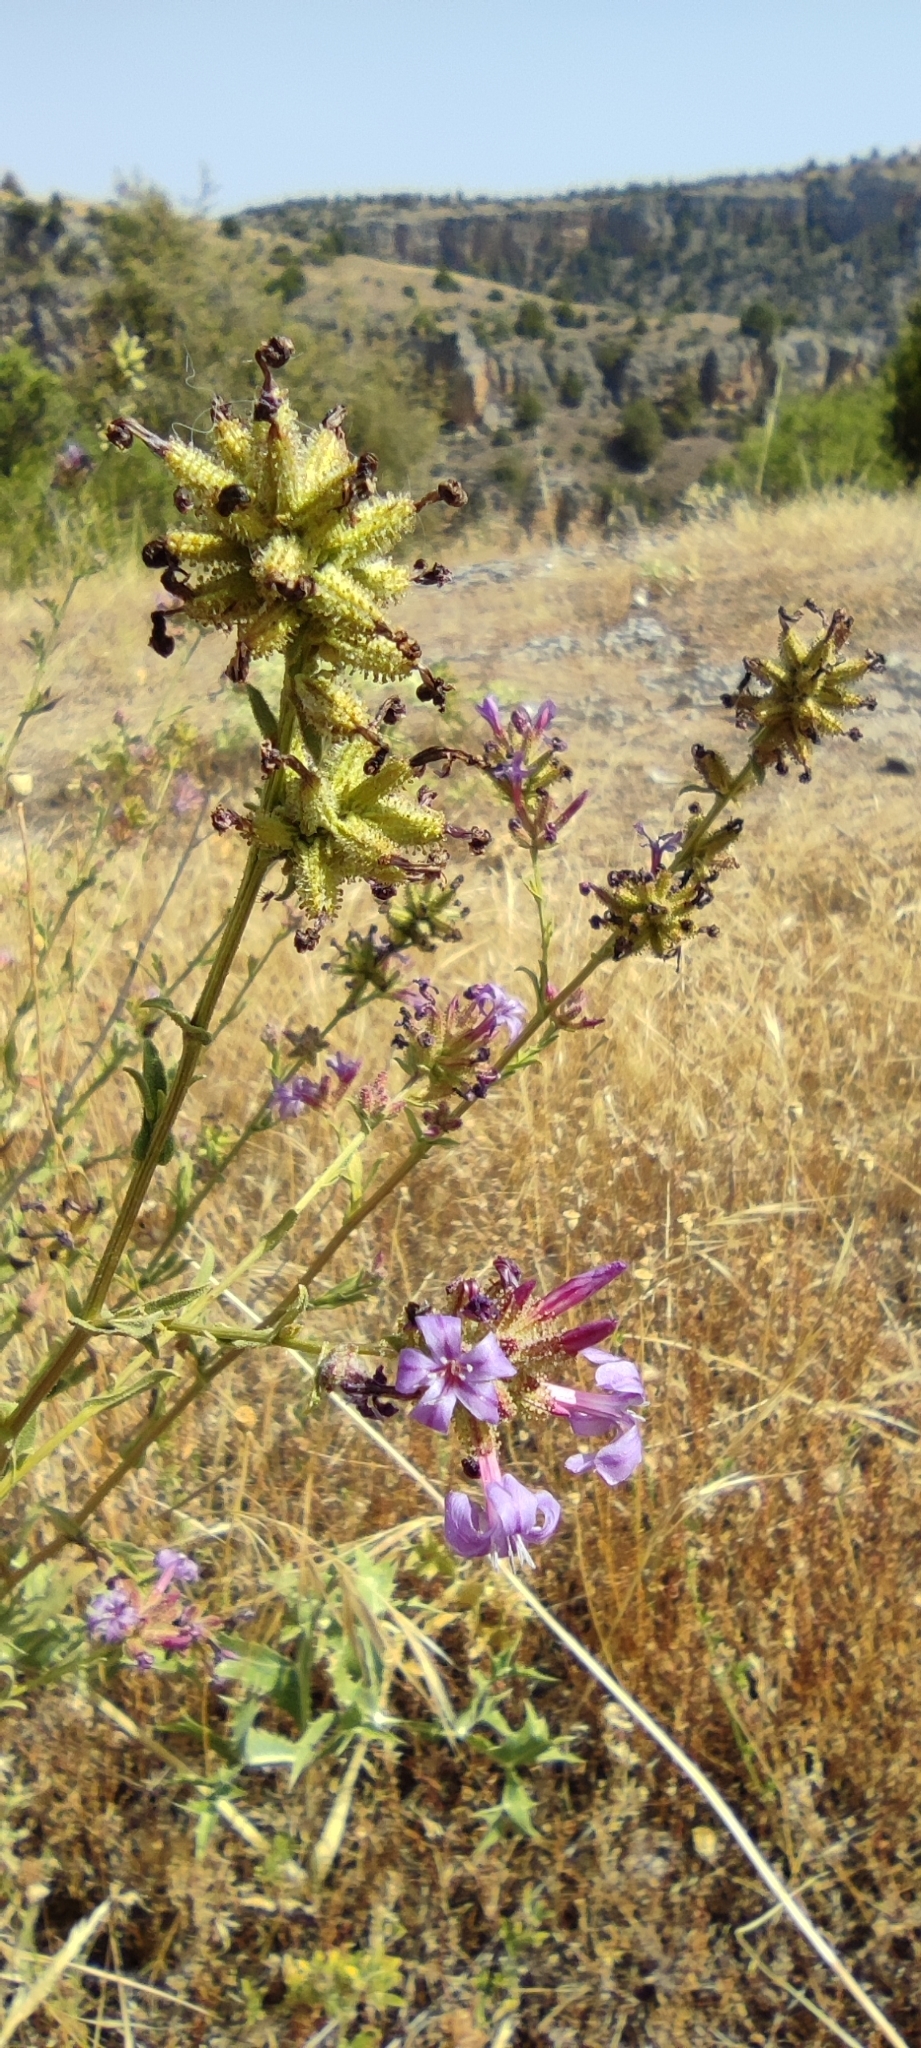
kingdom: Plantae
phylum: Tracheophyta
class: Magnoliopsida
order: Caryophyllales
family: Plumbaginaceae
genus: Plumbago
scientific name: Plumbago europaea
